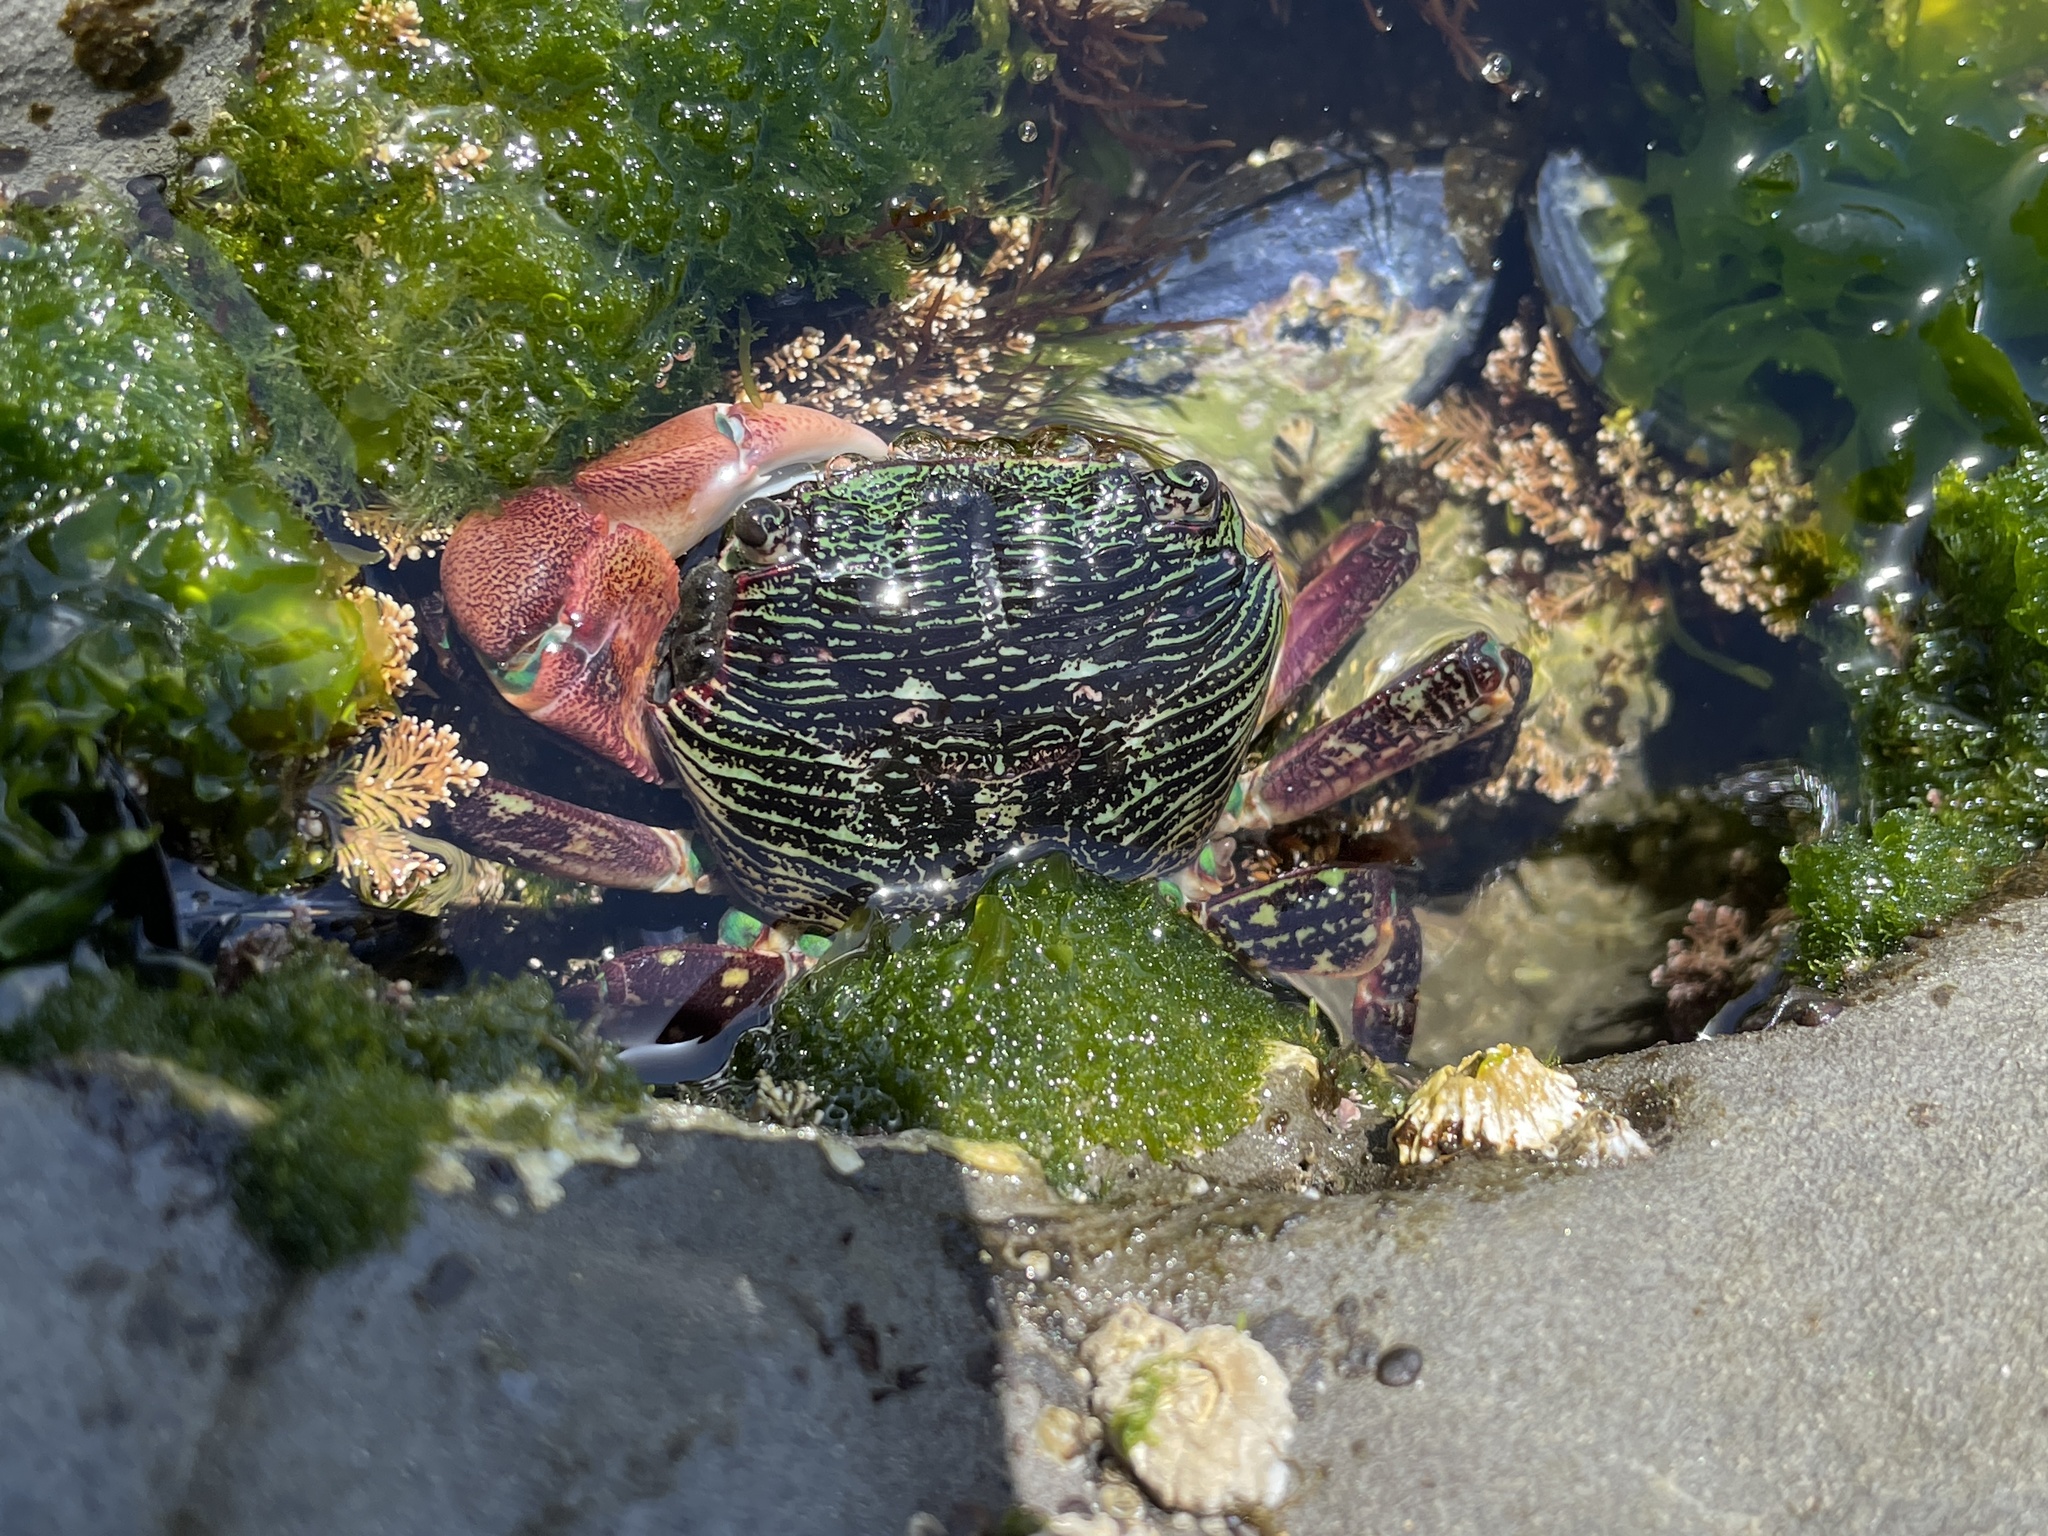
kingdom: Animalia
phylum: Arthropoda
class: Malacostraca
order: Decapoda
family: Grapsidae
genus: Pachygrapsus
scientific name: Pachygrapsus crassipes
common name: Striped shore crab
